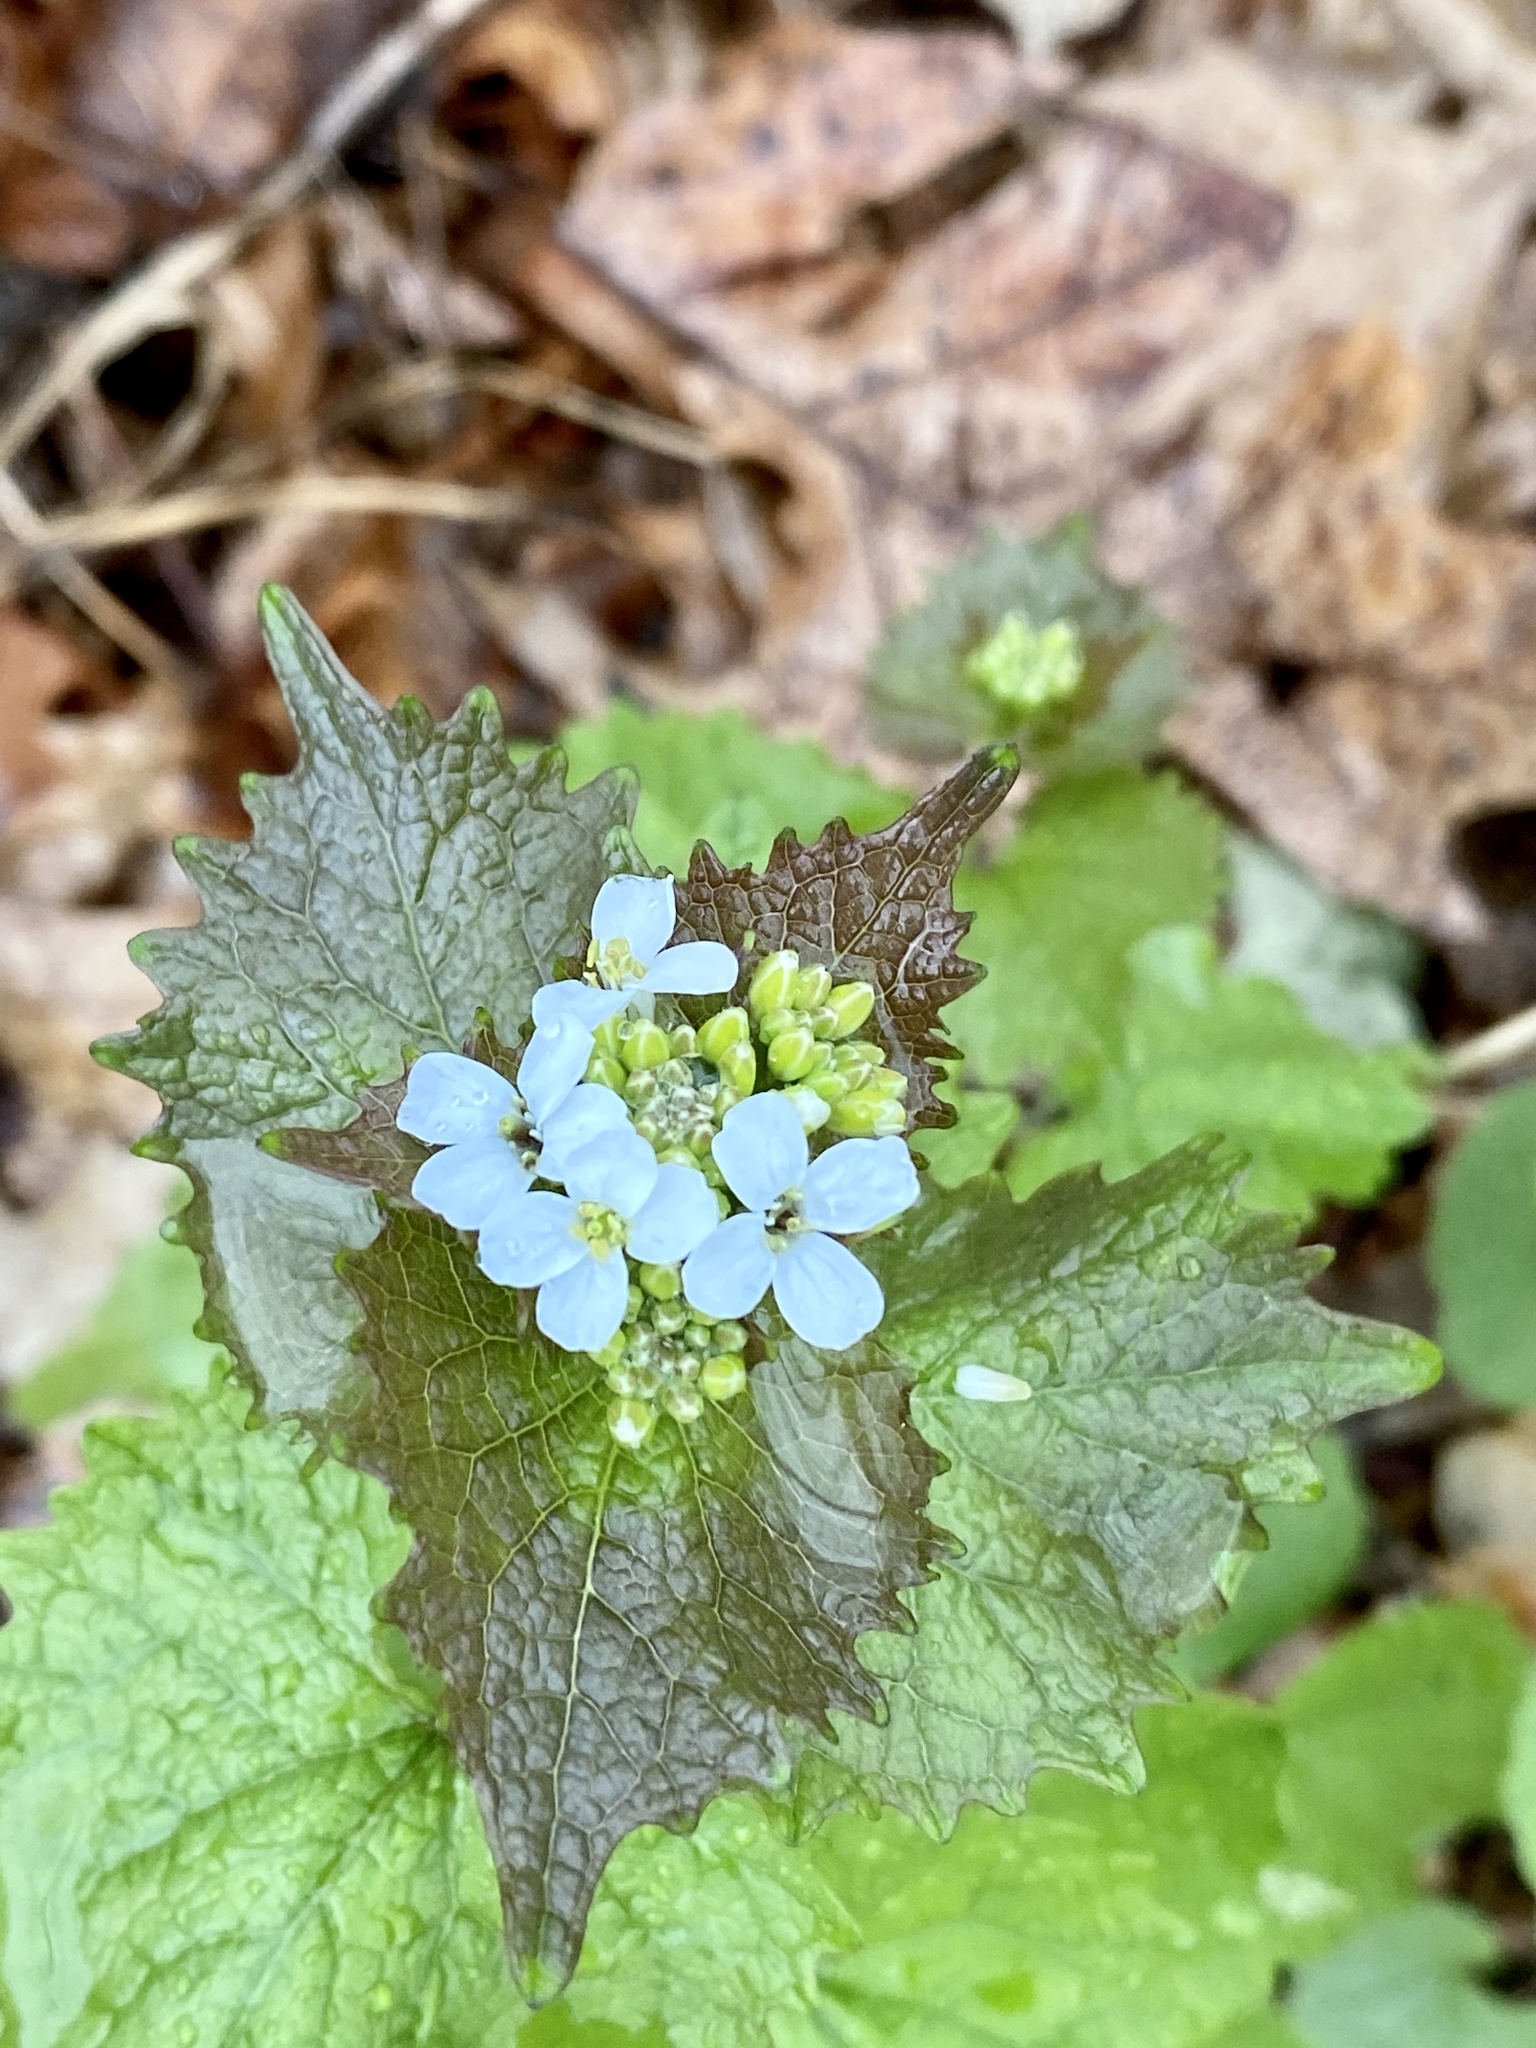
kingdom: Plantae
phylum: Tracheophyta
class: Magnoliopsida
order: Brassicales
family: Brassicaceae
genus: Alliaria
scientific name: Alliaria petiolata
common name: Garlic mustard
